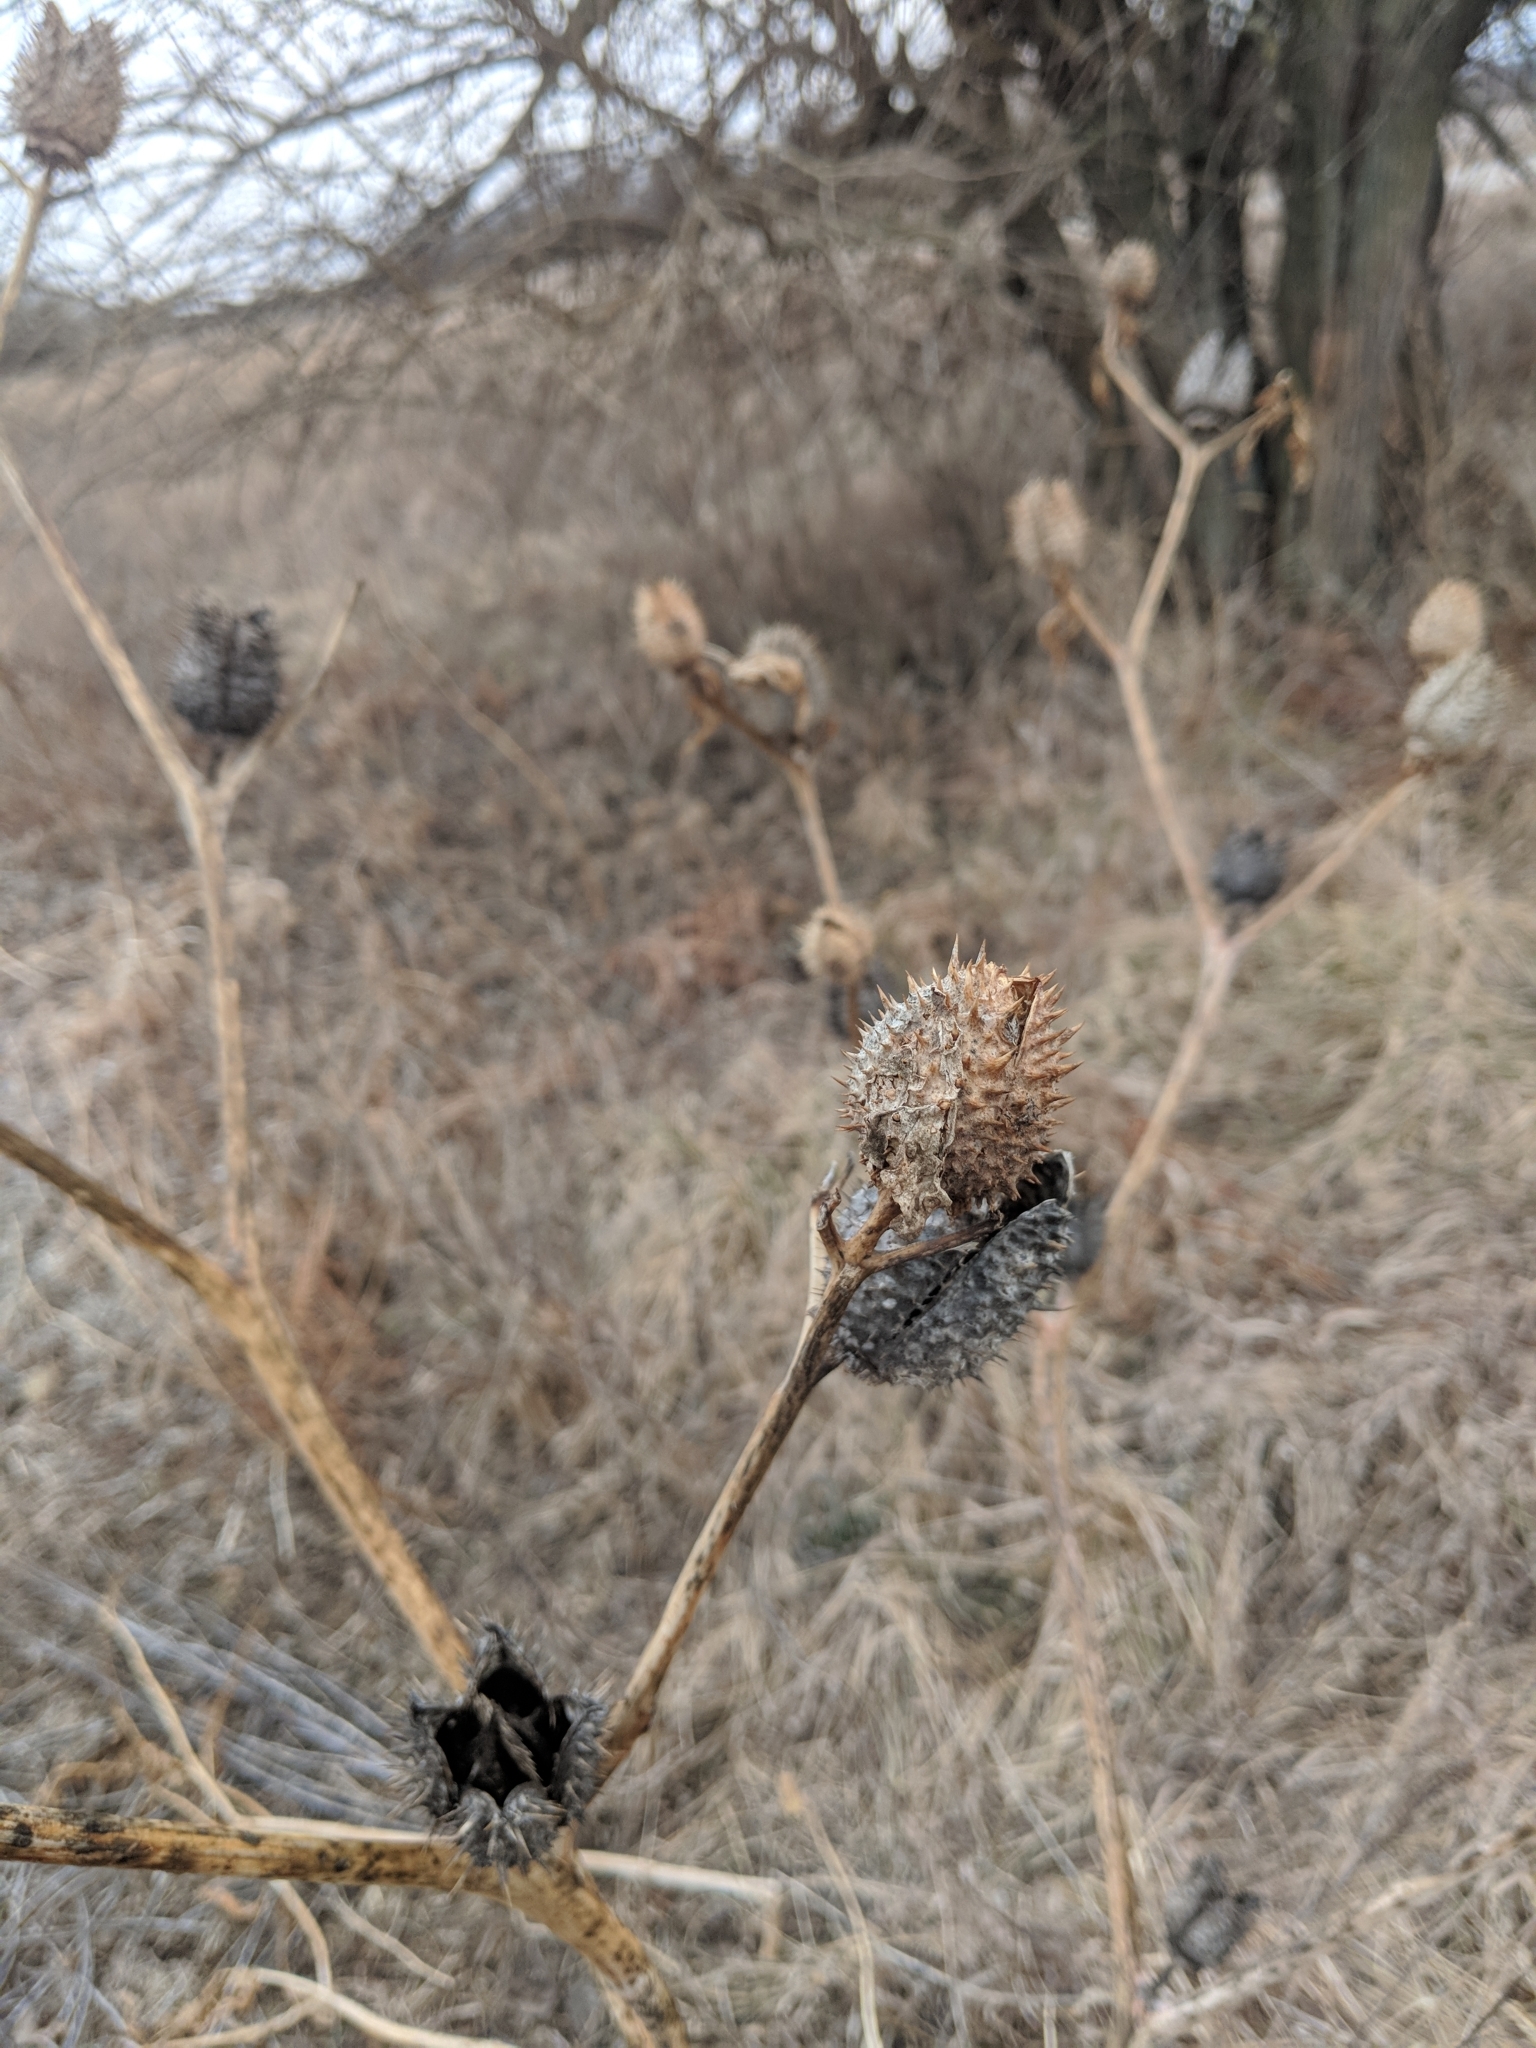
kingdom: Plantae
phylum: Tracheophyta
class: Magnoliopsida
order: Solanales
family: Solanaceae
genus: Datura
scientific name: Datura stramonium
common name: Thorn-apple
